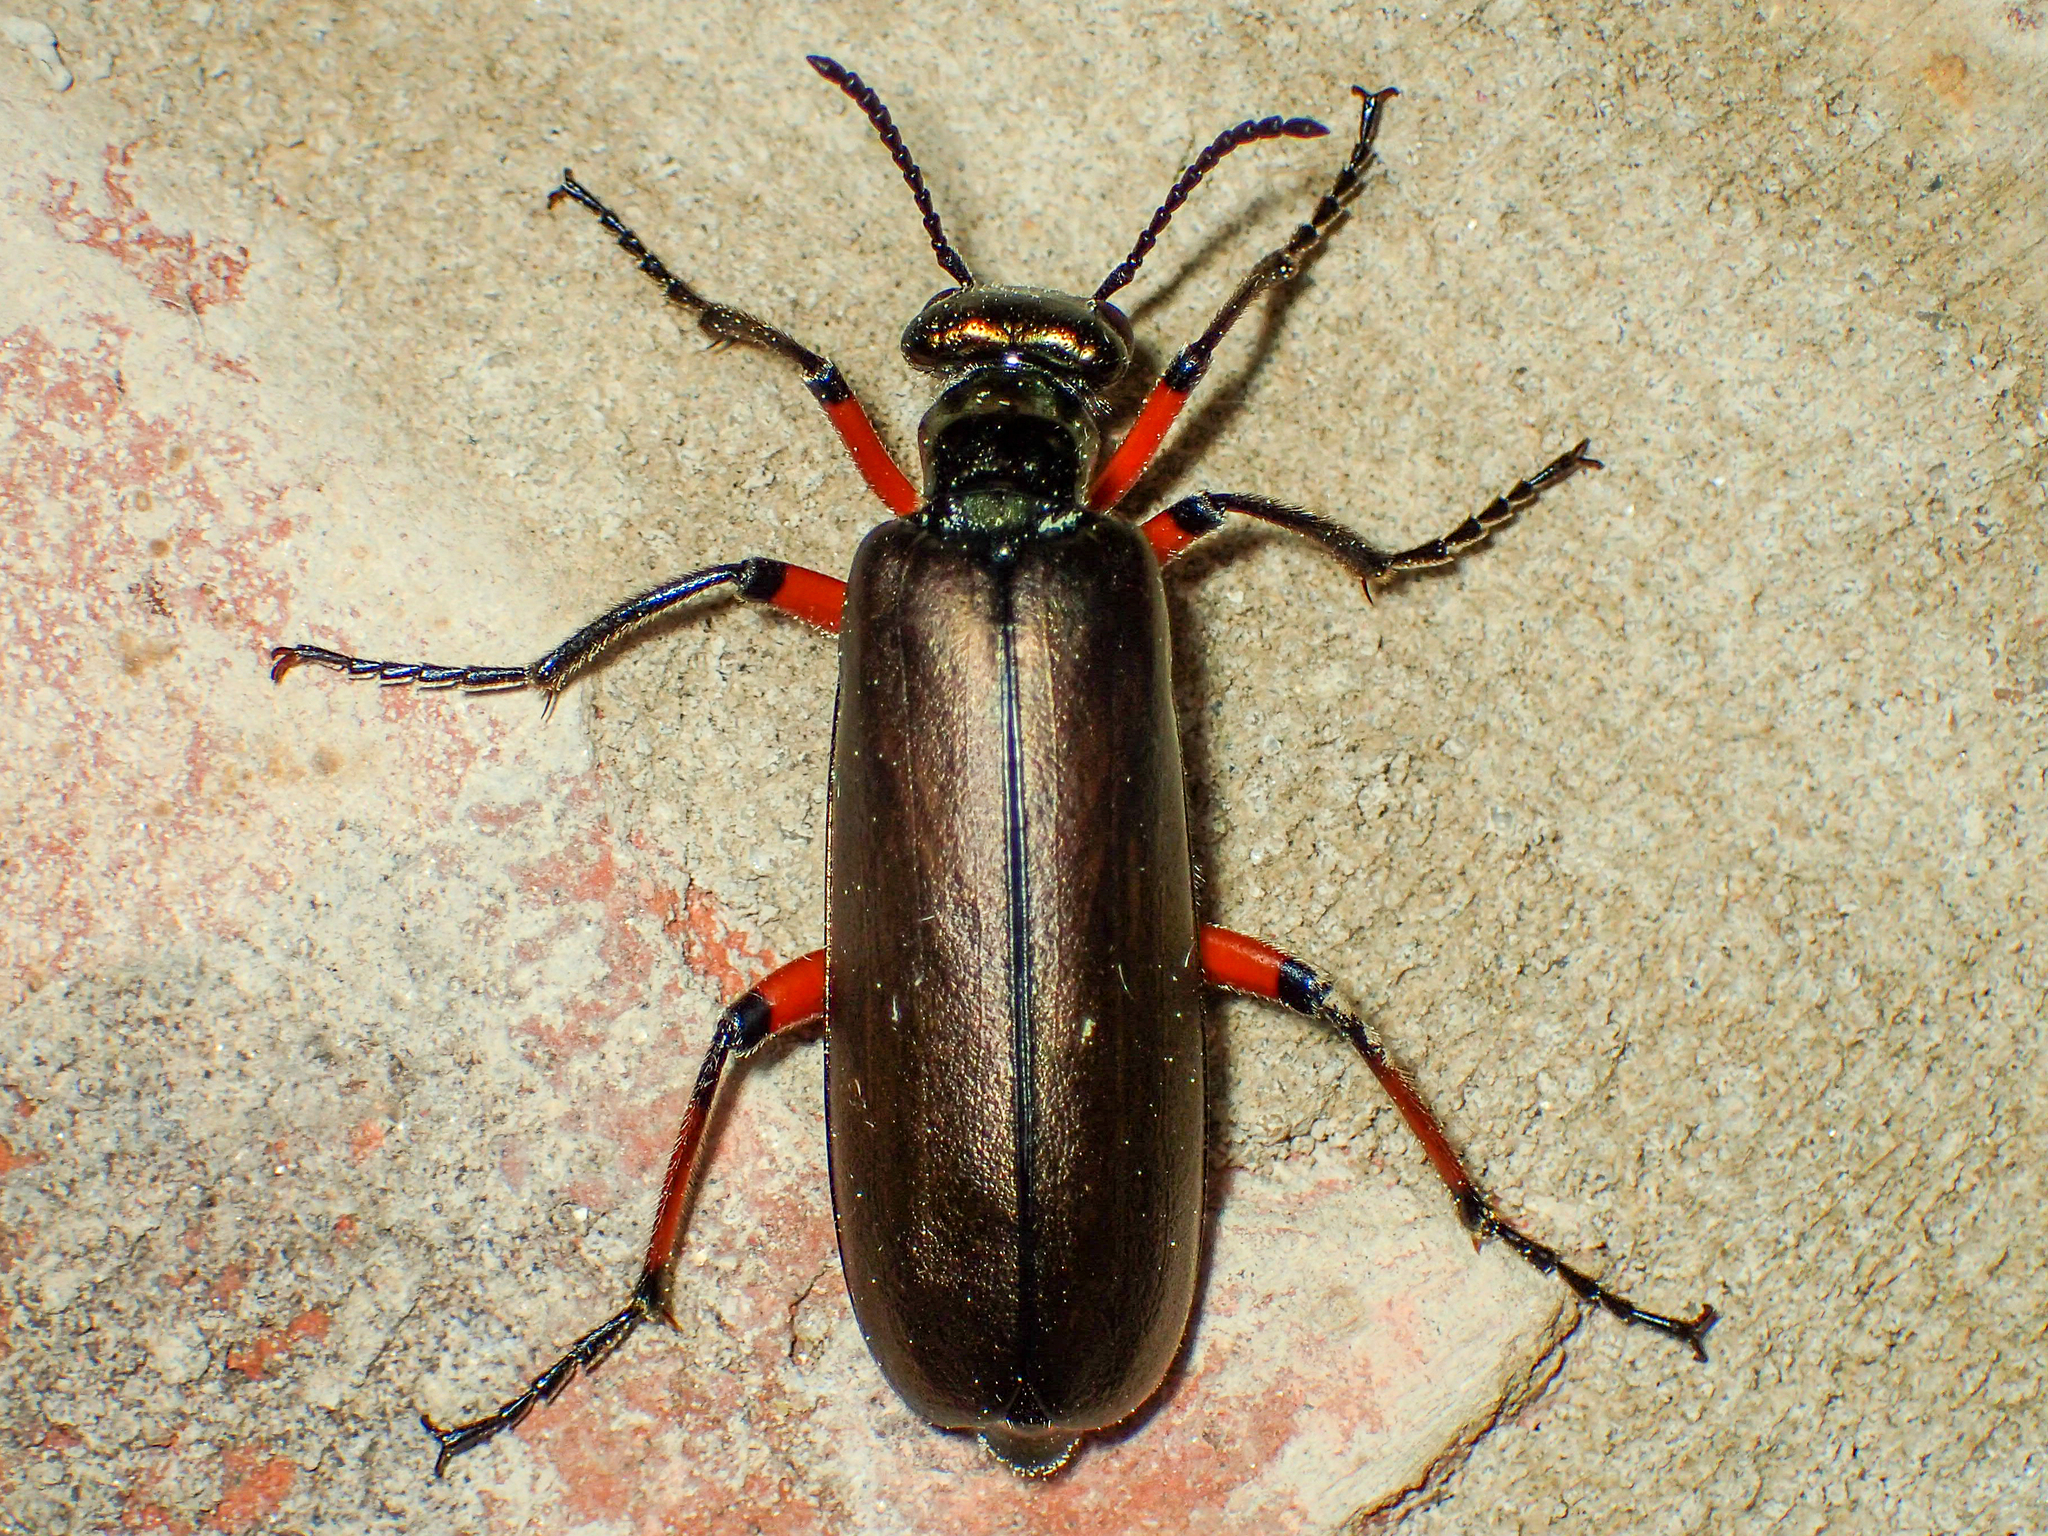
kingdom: Animalia
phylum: Arthropoda
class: Insecta
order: Coleoptera
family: Meloidae
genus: Lytta
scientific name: Lytta polita
